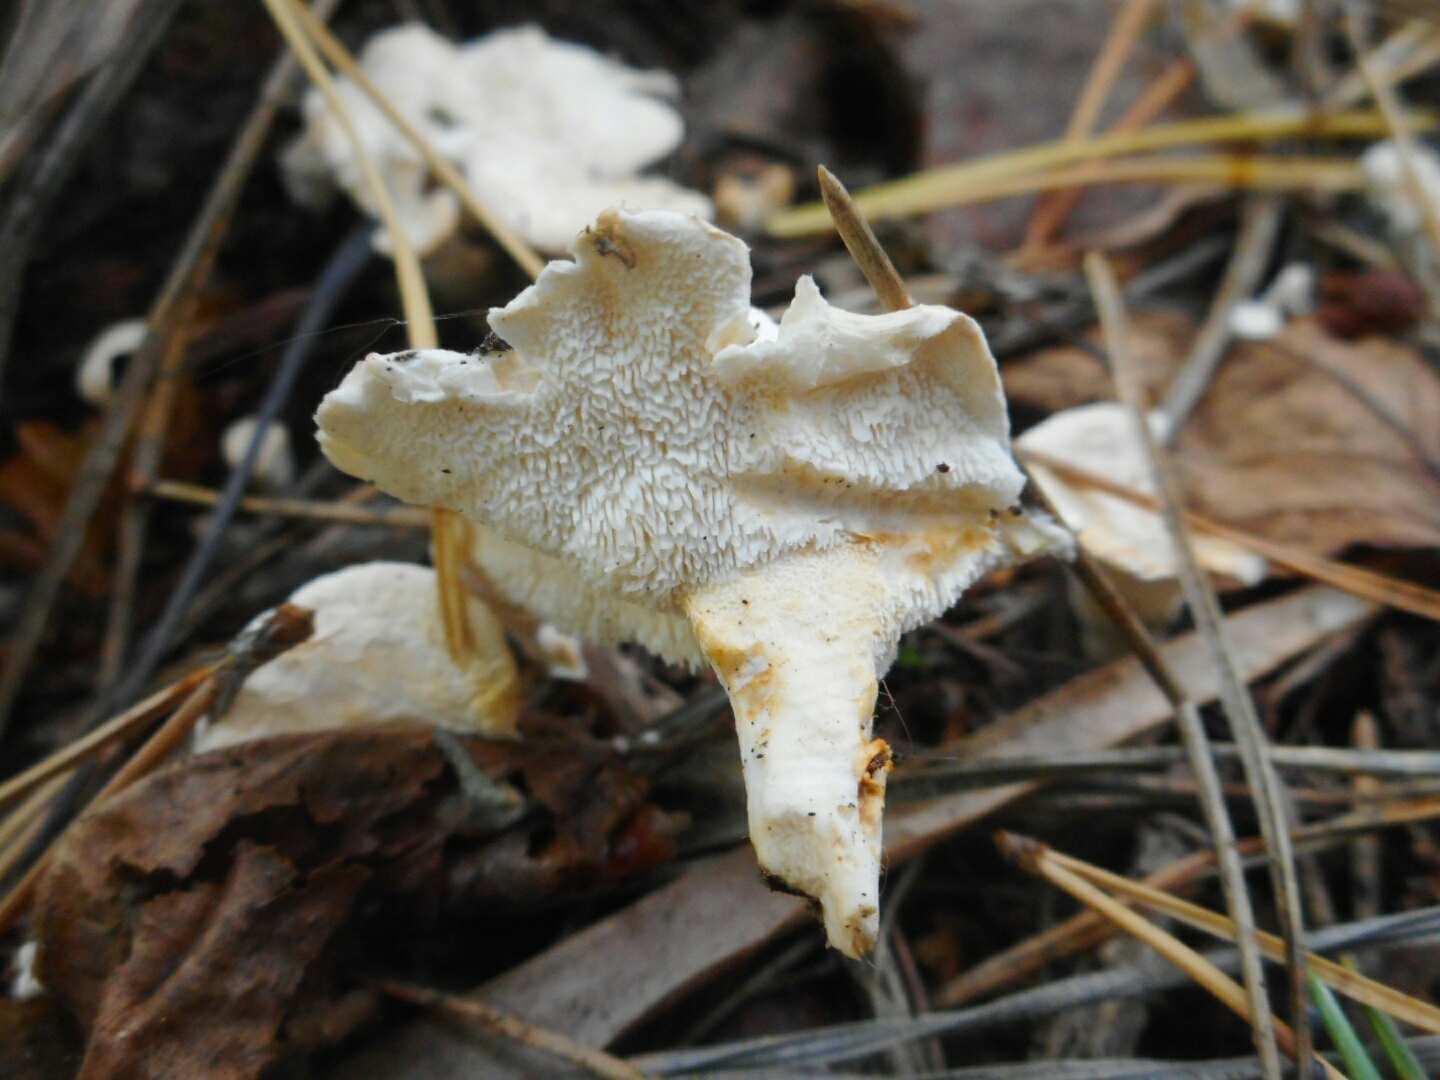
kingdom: Fungi
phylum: Basidiomycota
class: Agaricomycetes
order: Cantharellales
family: Hydnaceae
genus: Sistotrema
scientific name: Sistotrema confluens
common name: Aromatic earthfan
